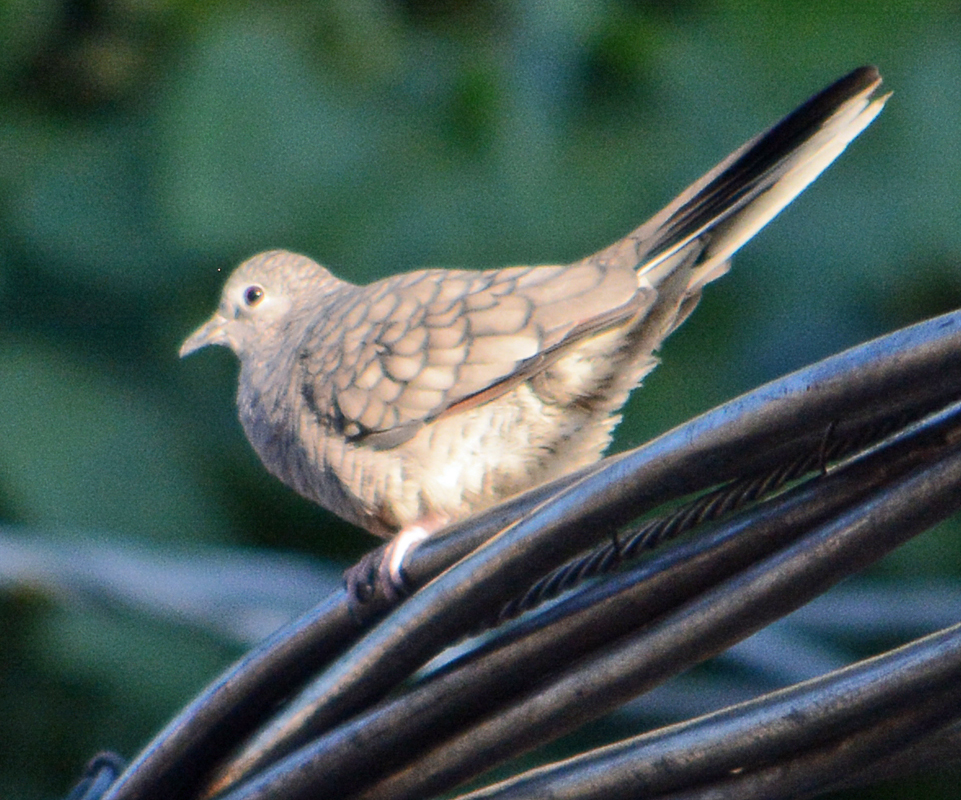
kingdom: Animalia
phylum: Chordata
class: Aves
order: Columbiformes
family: Columbidae
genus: Columbina
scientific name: Columbina inca
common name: Inca dove
